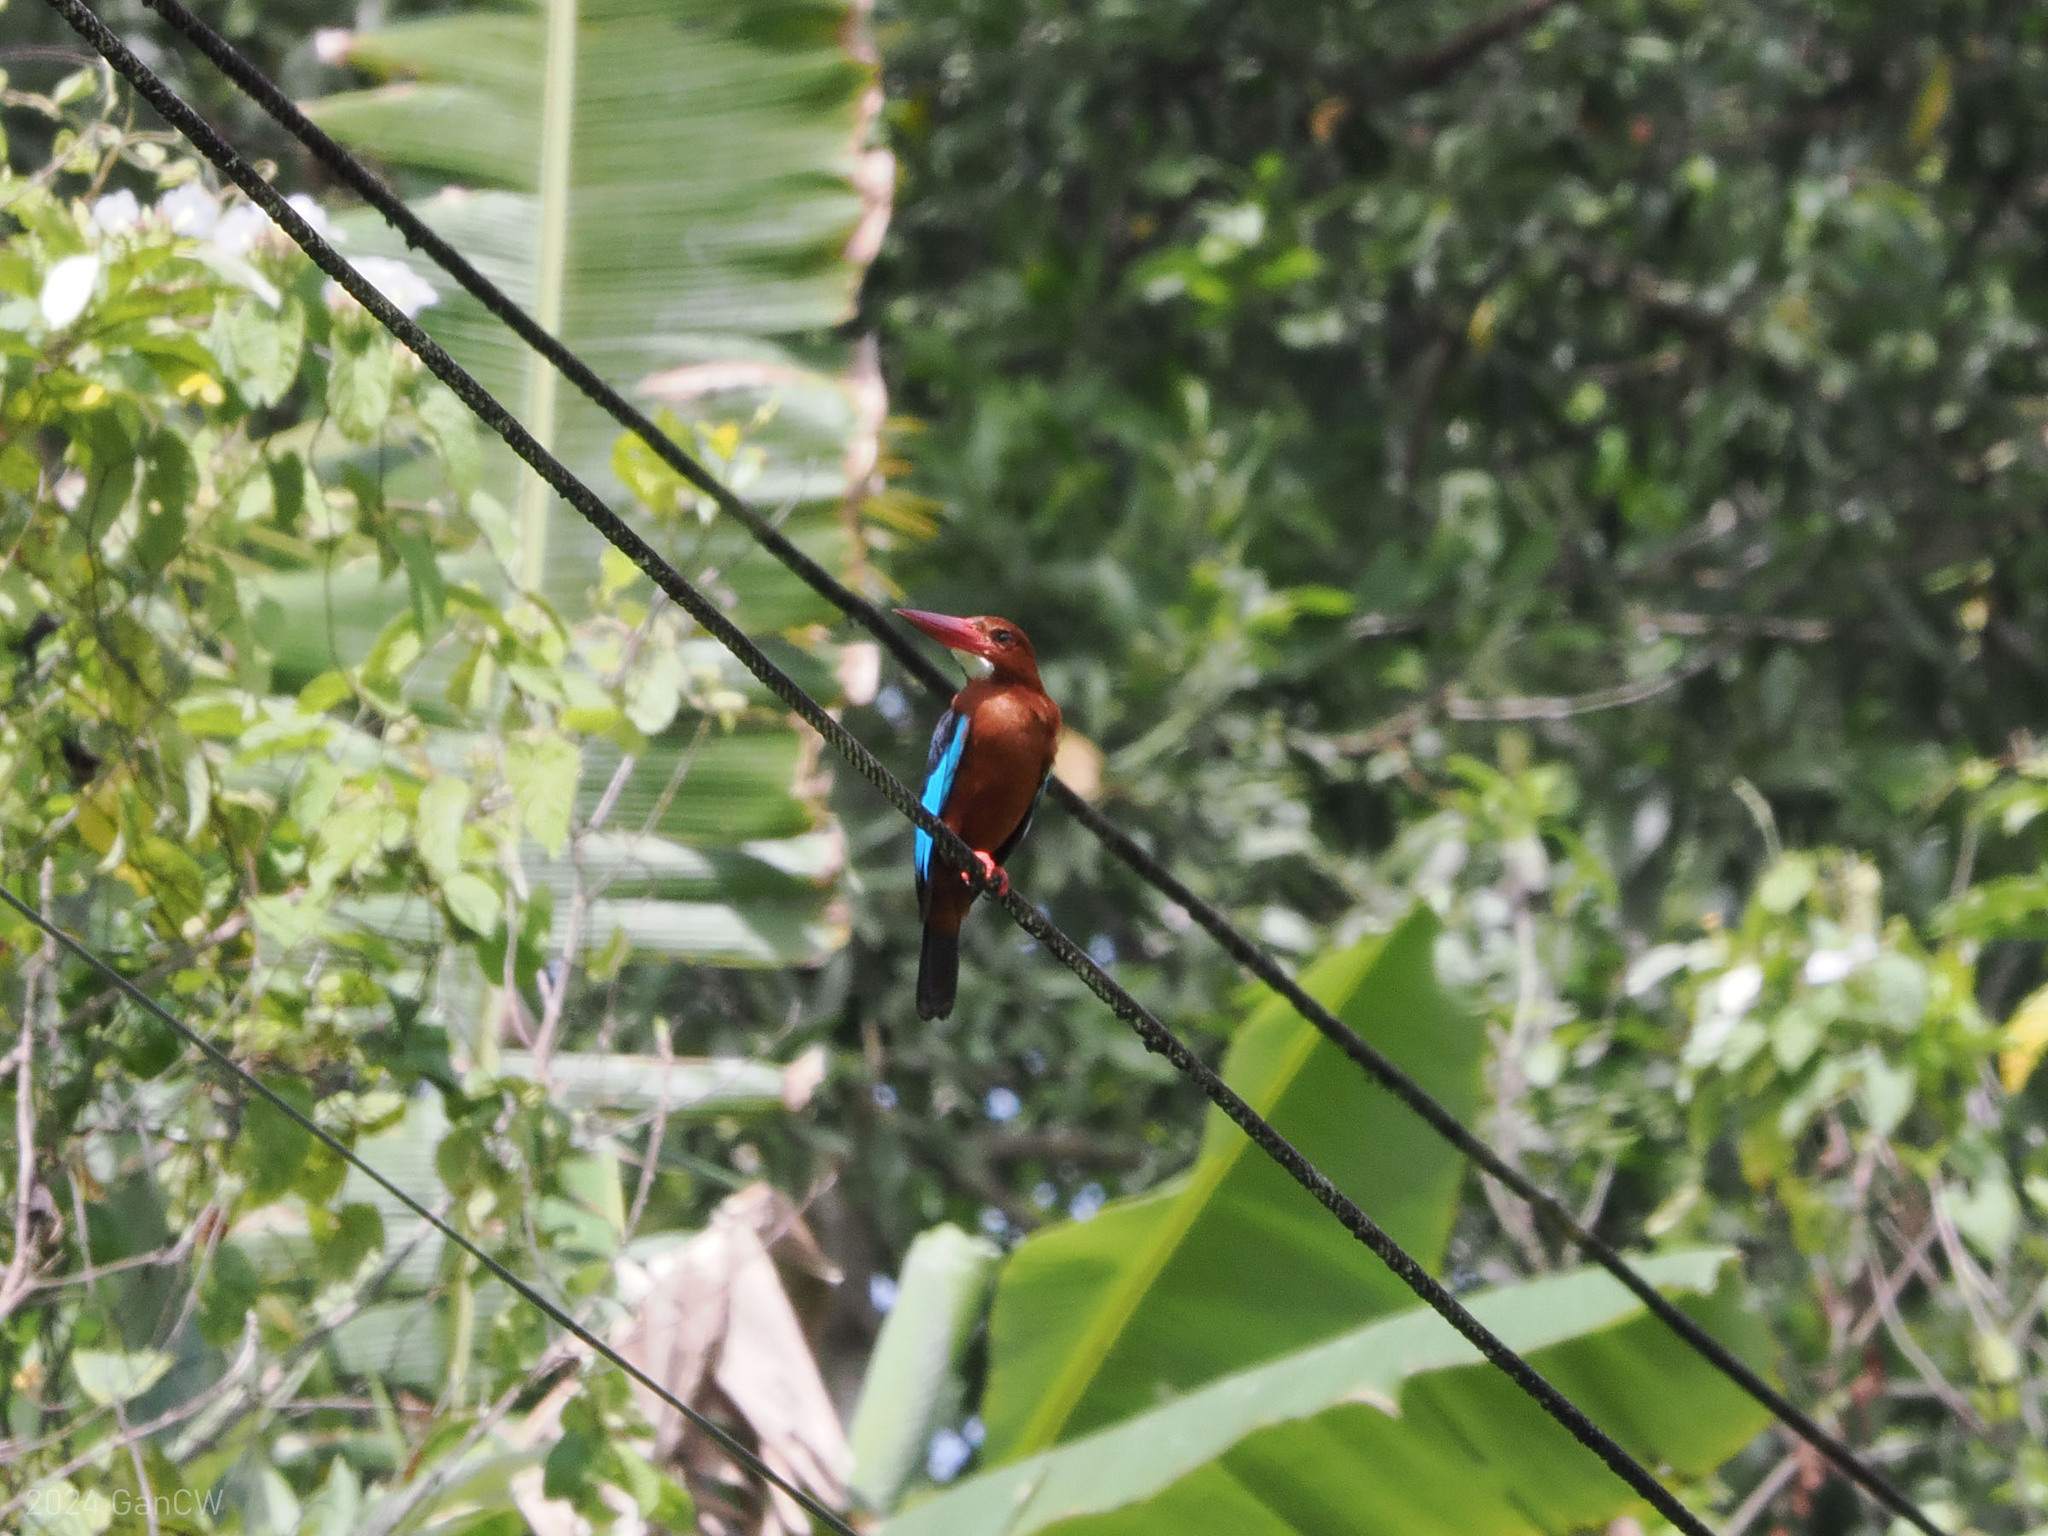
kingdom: Animalia
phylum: Chordata
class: Aves
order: Coraciiformes
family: Alcedinidae
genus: Halcyon
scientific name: Halcyon gularis
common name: Brown-breasted kingfisher
